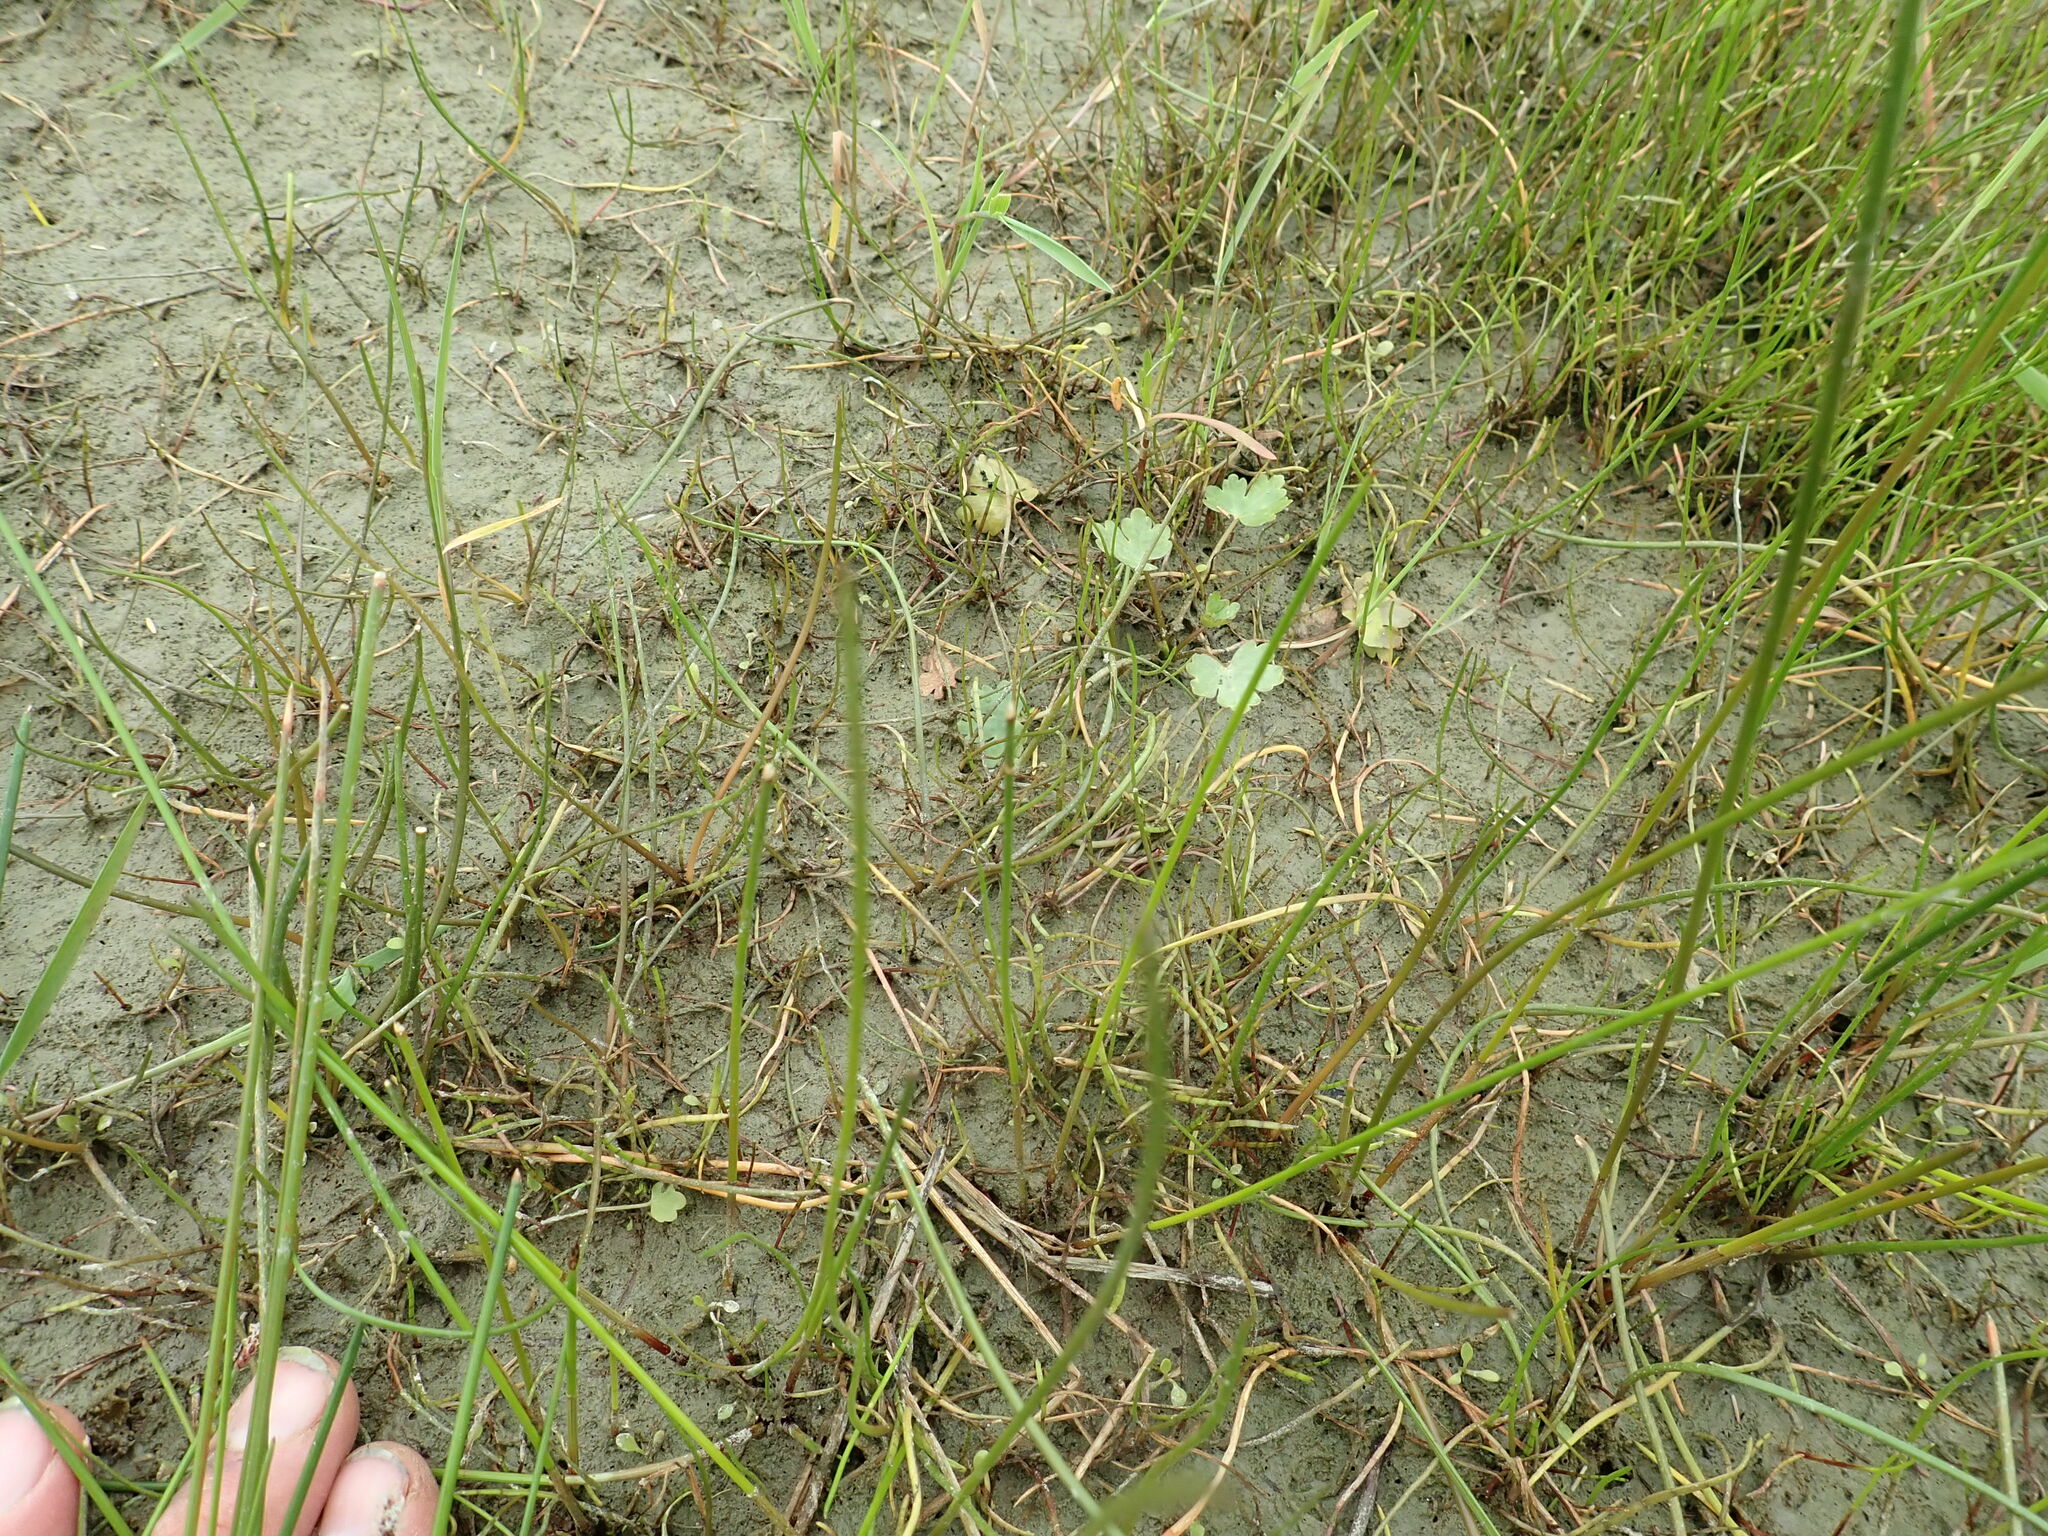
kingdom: Plantae
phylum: Tracheophyta
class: Magnoliopsida
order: Apiales
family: Apiaceae
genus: Apium
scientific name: Apium prostratum
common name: Prostrate marshwort
